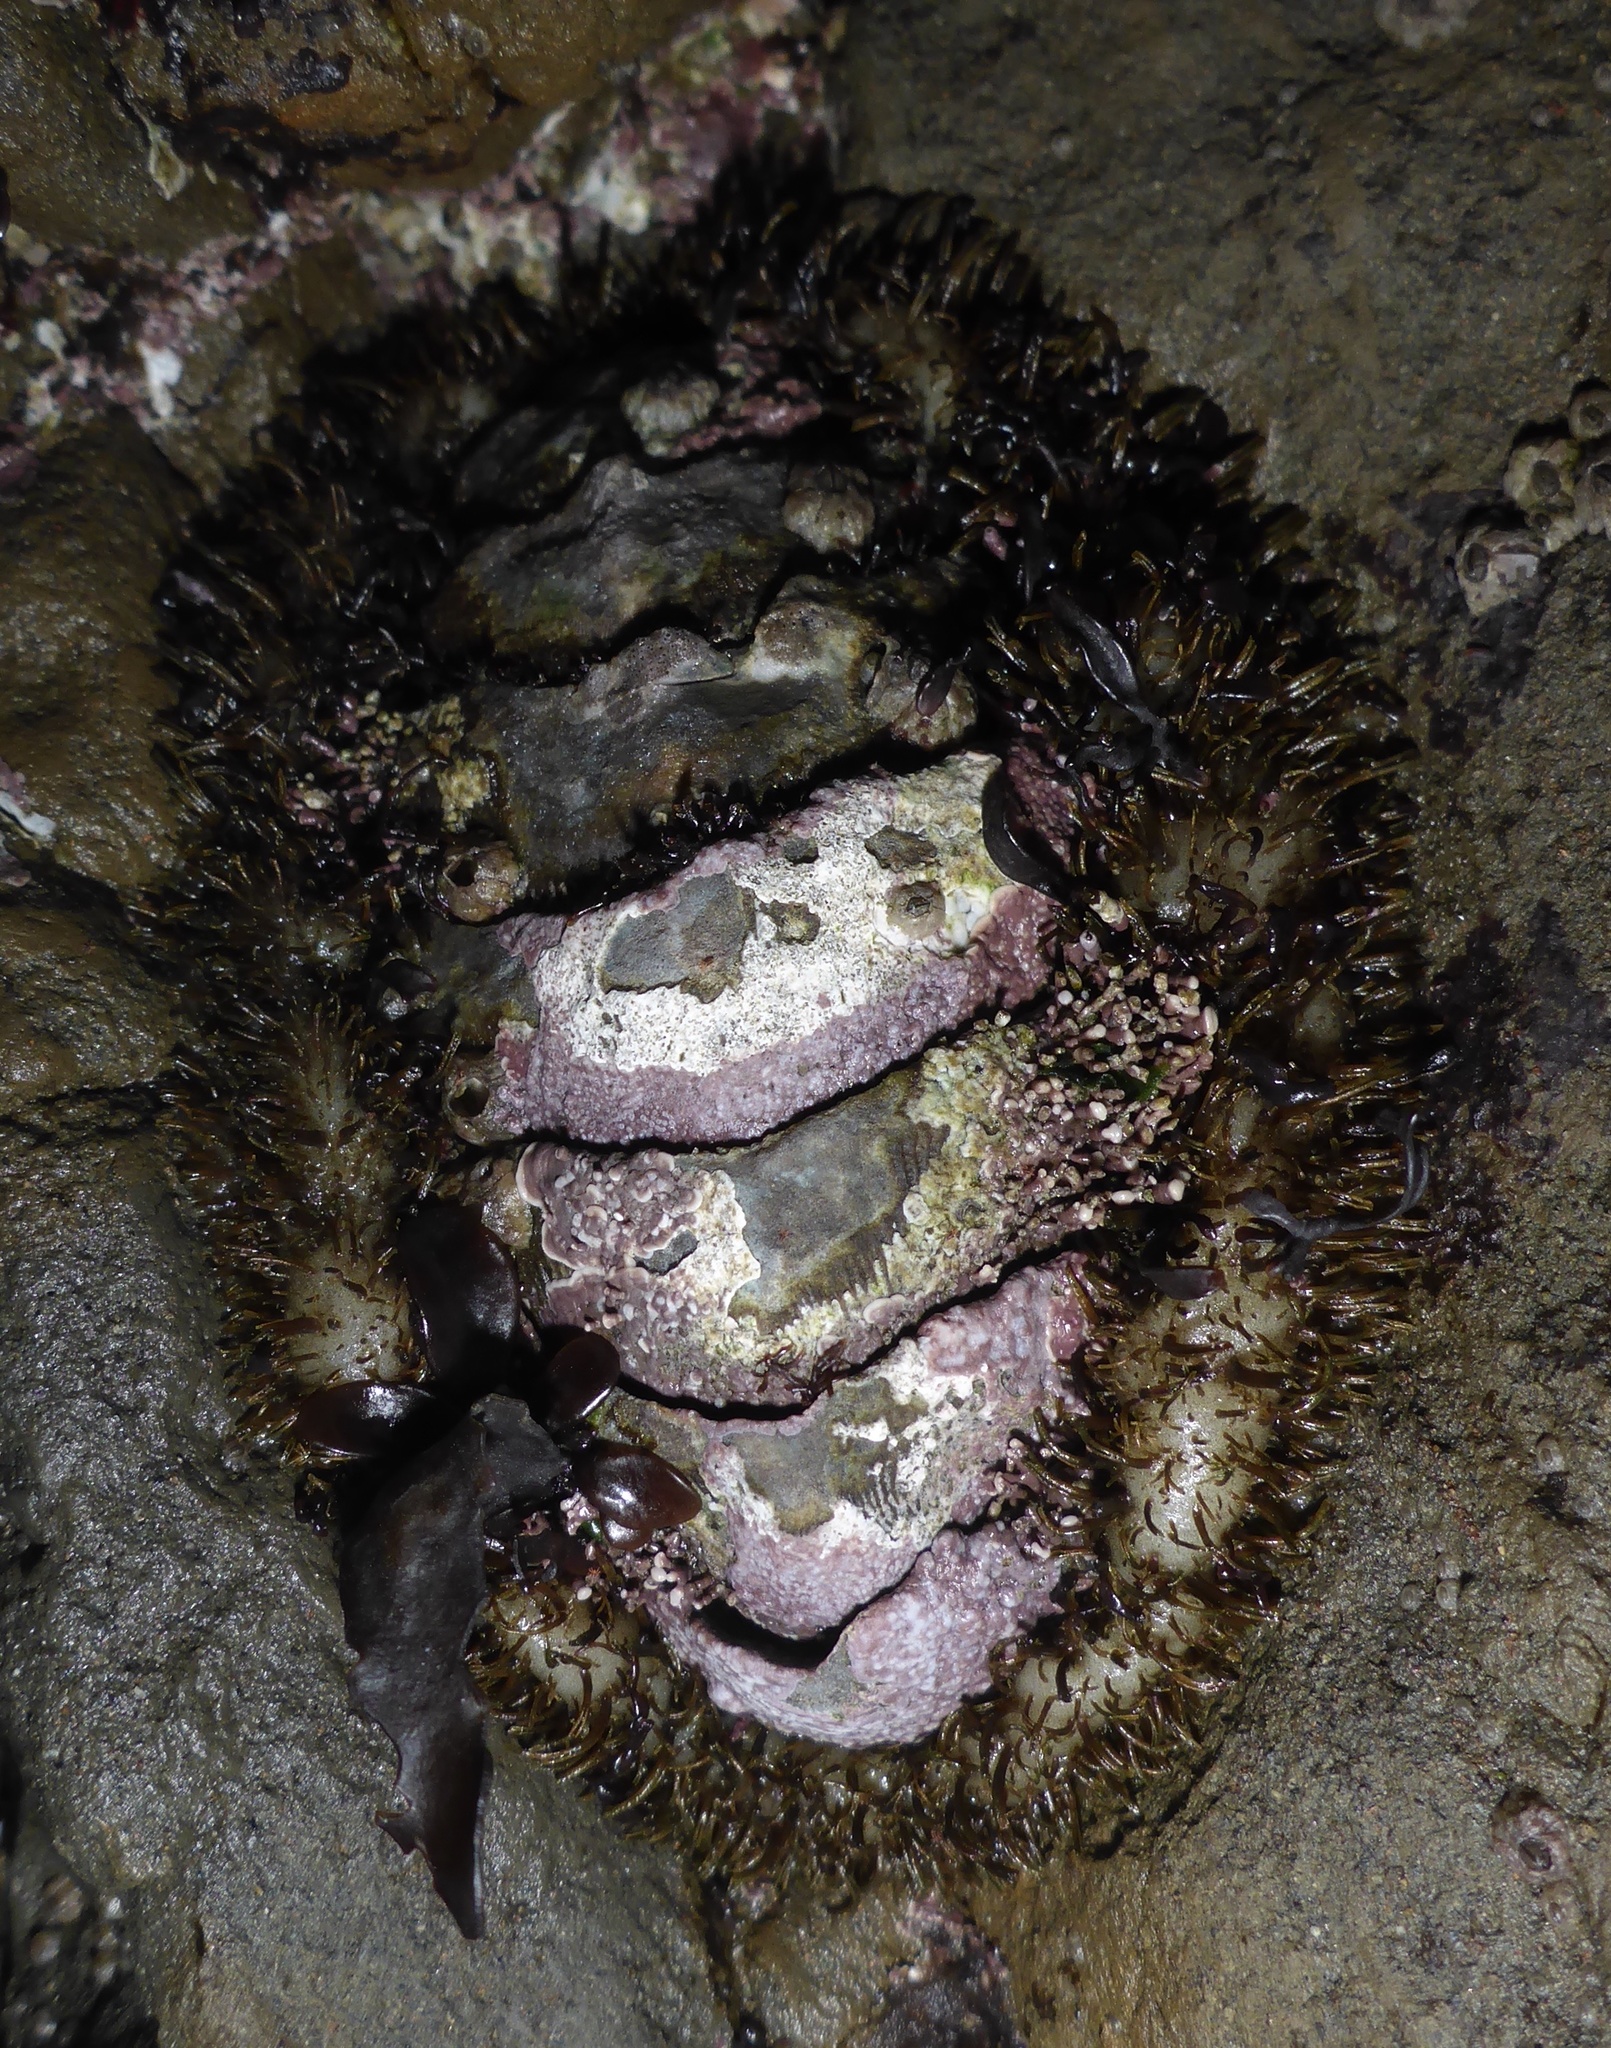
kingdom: Animalia
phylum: Mollusca
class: Polyplacophora
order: Chitonida
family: Mopaliidae
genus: Mopalia
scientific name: Mopalia muscosa
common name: Mossy chiton
